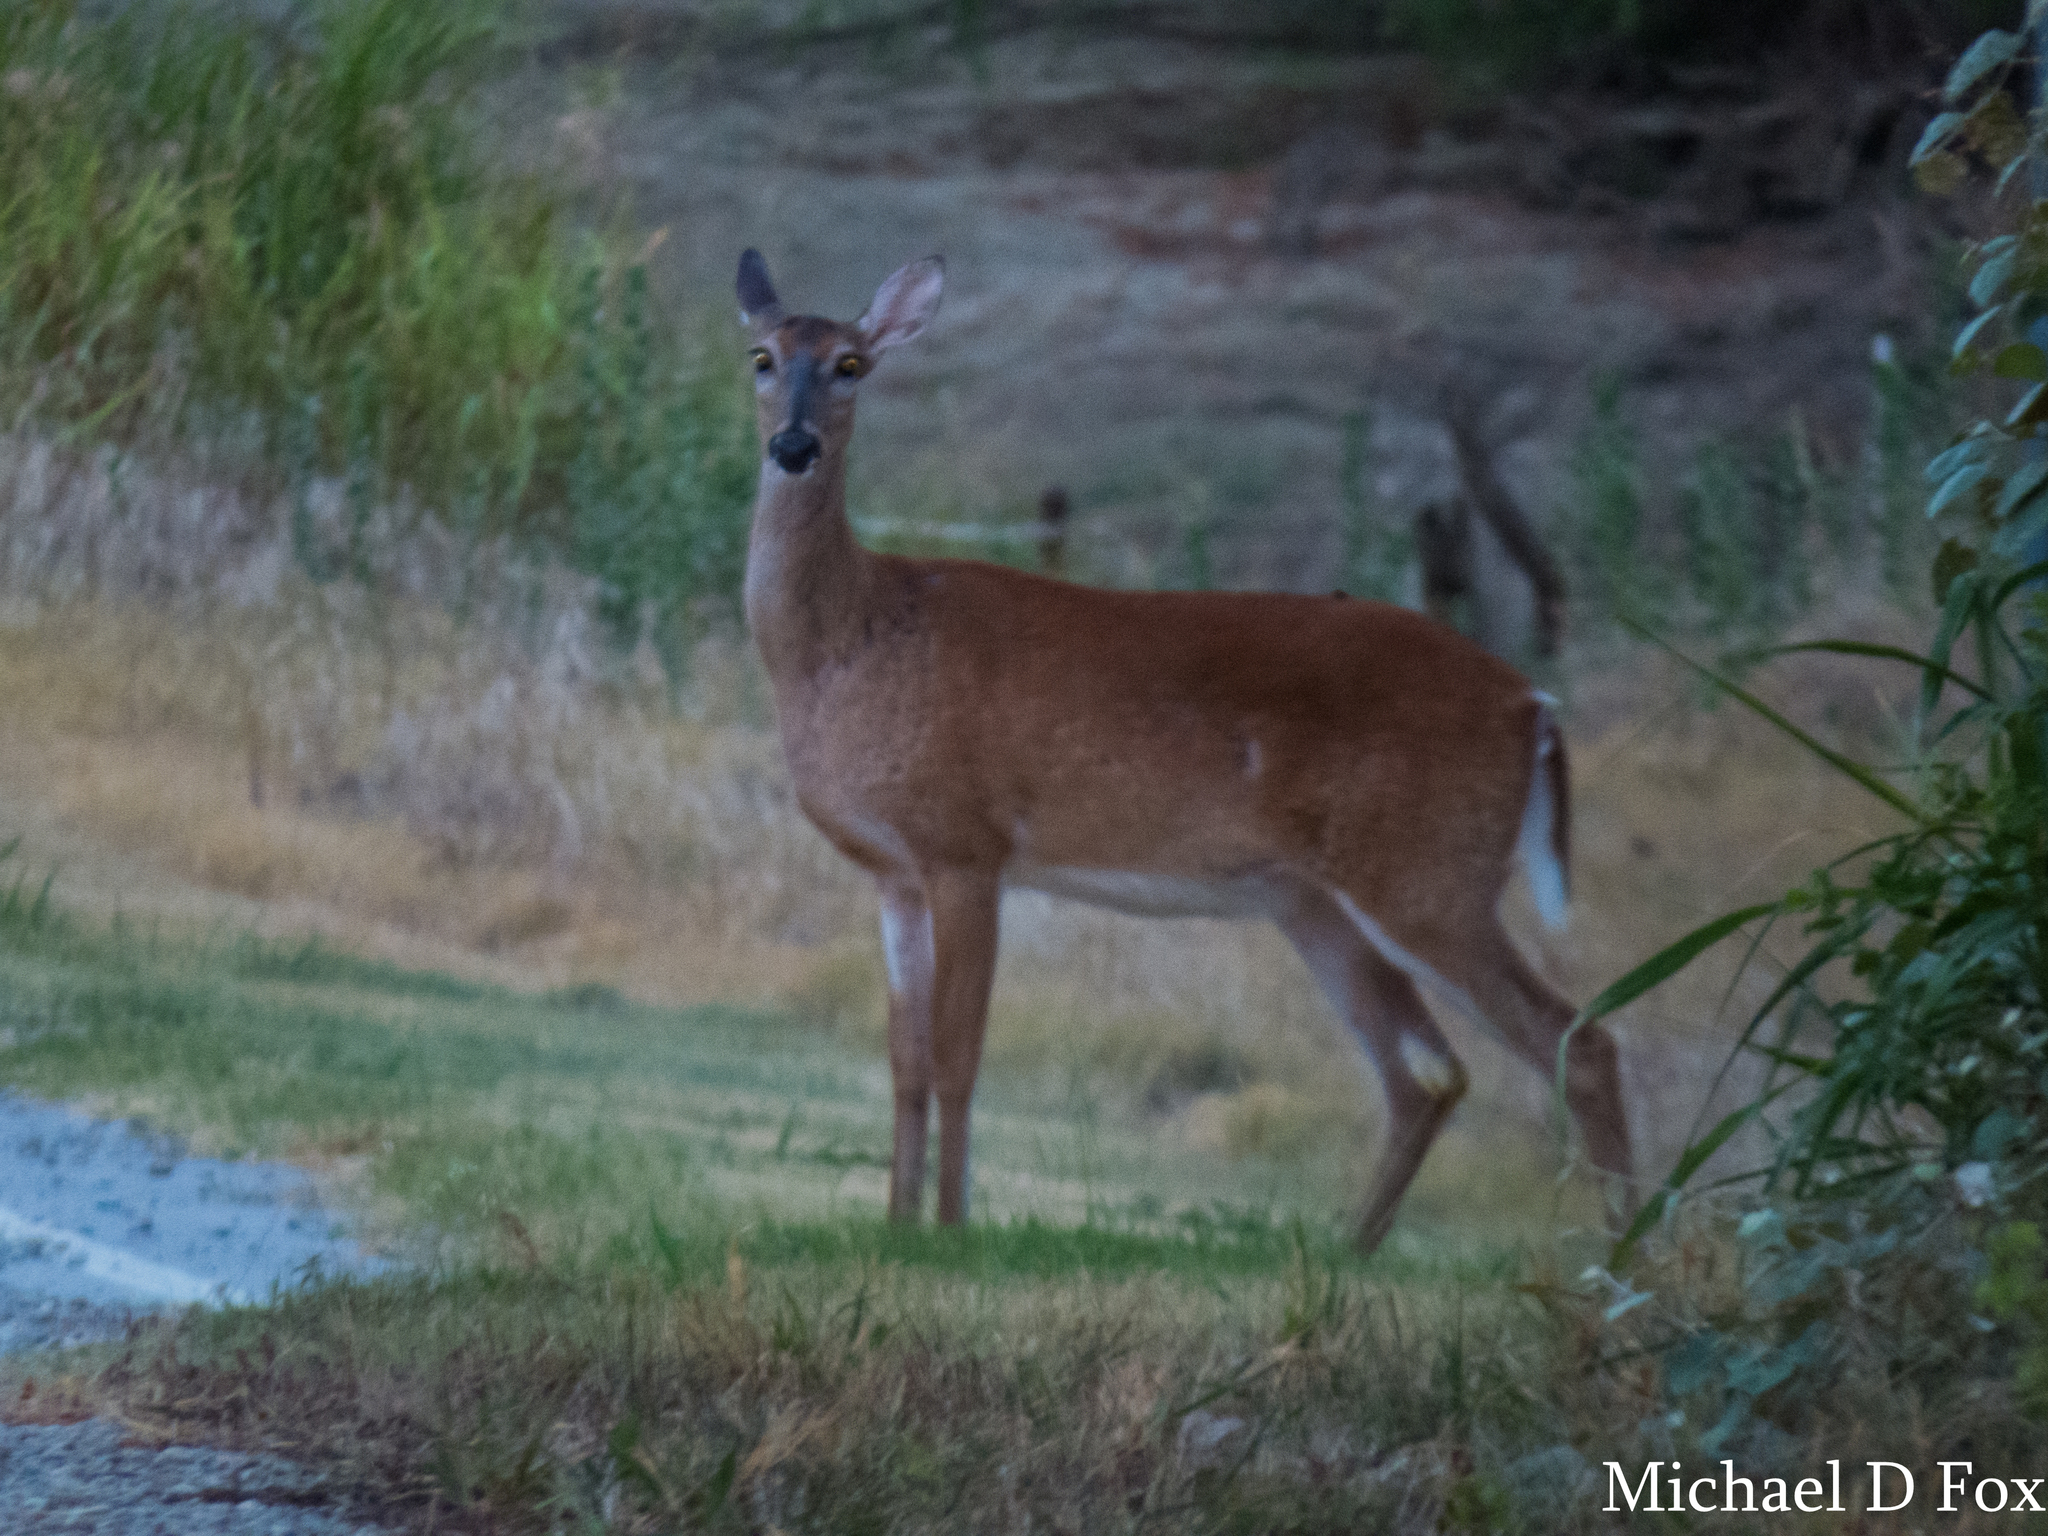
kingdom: Animalia
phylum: Chordata
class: Mammalia
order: Artiodactyla
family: Cervidae
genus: Odocoileus
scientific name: Odocoileus virginianus
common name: White-tailed deer
